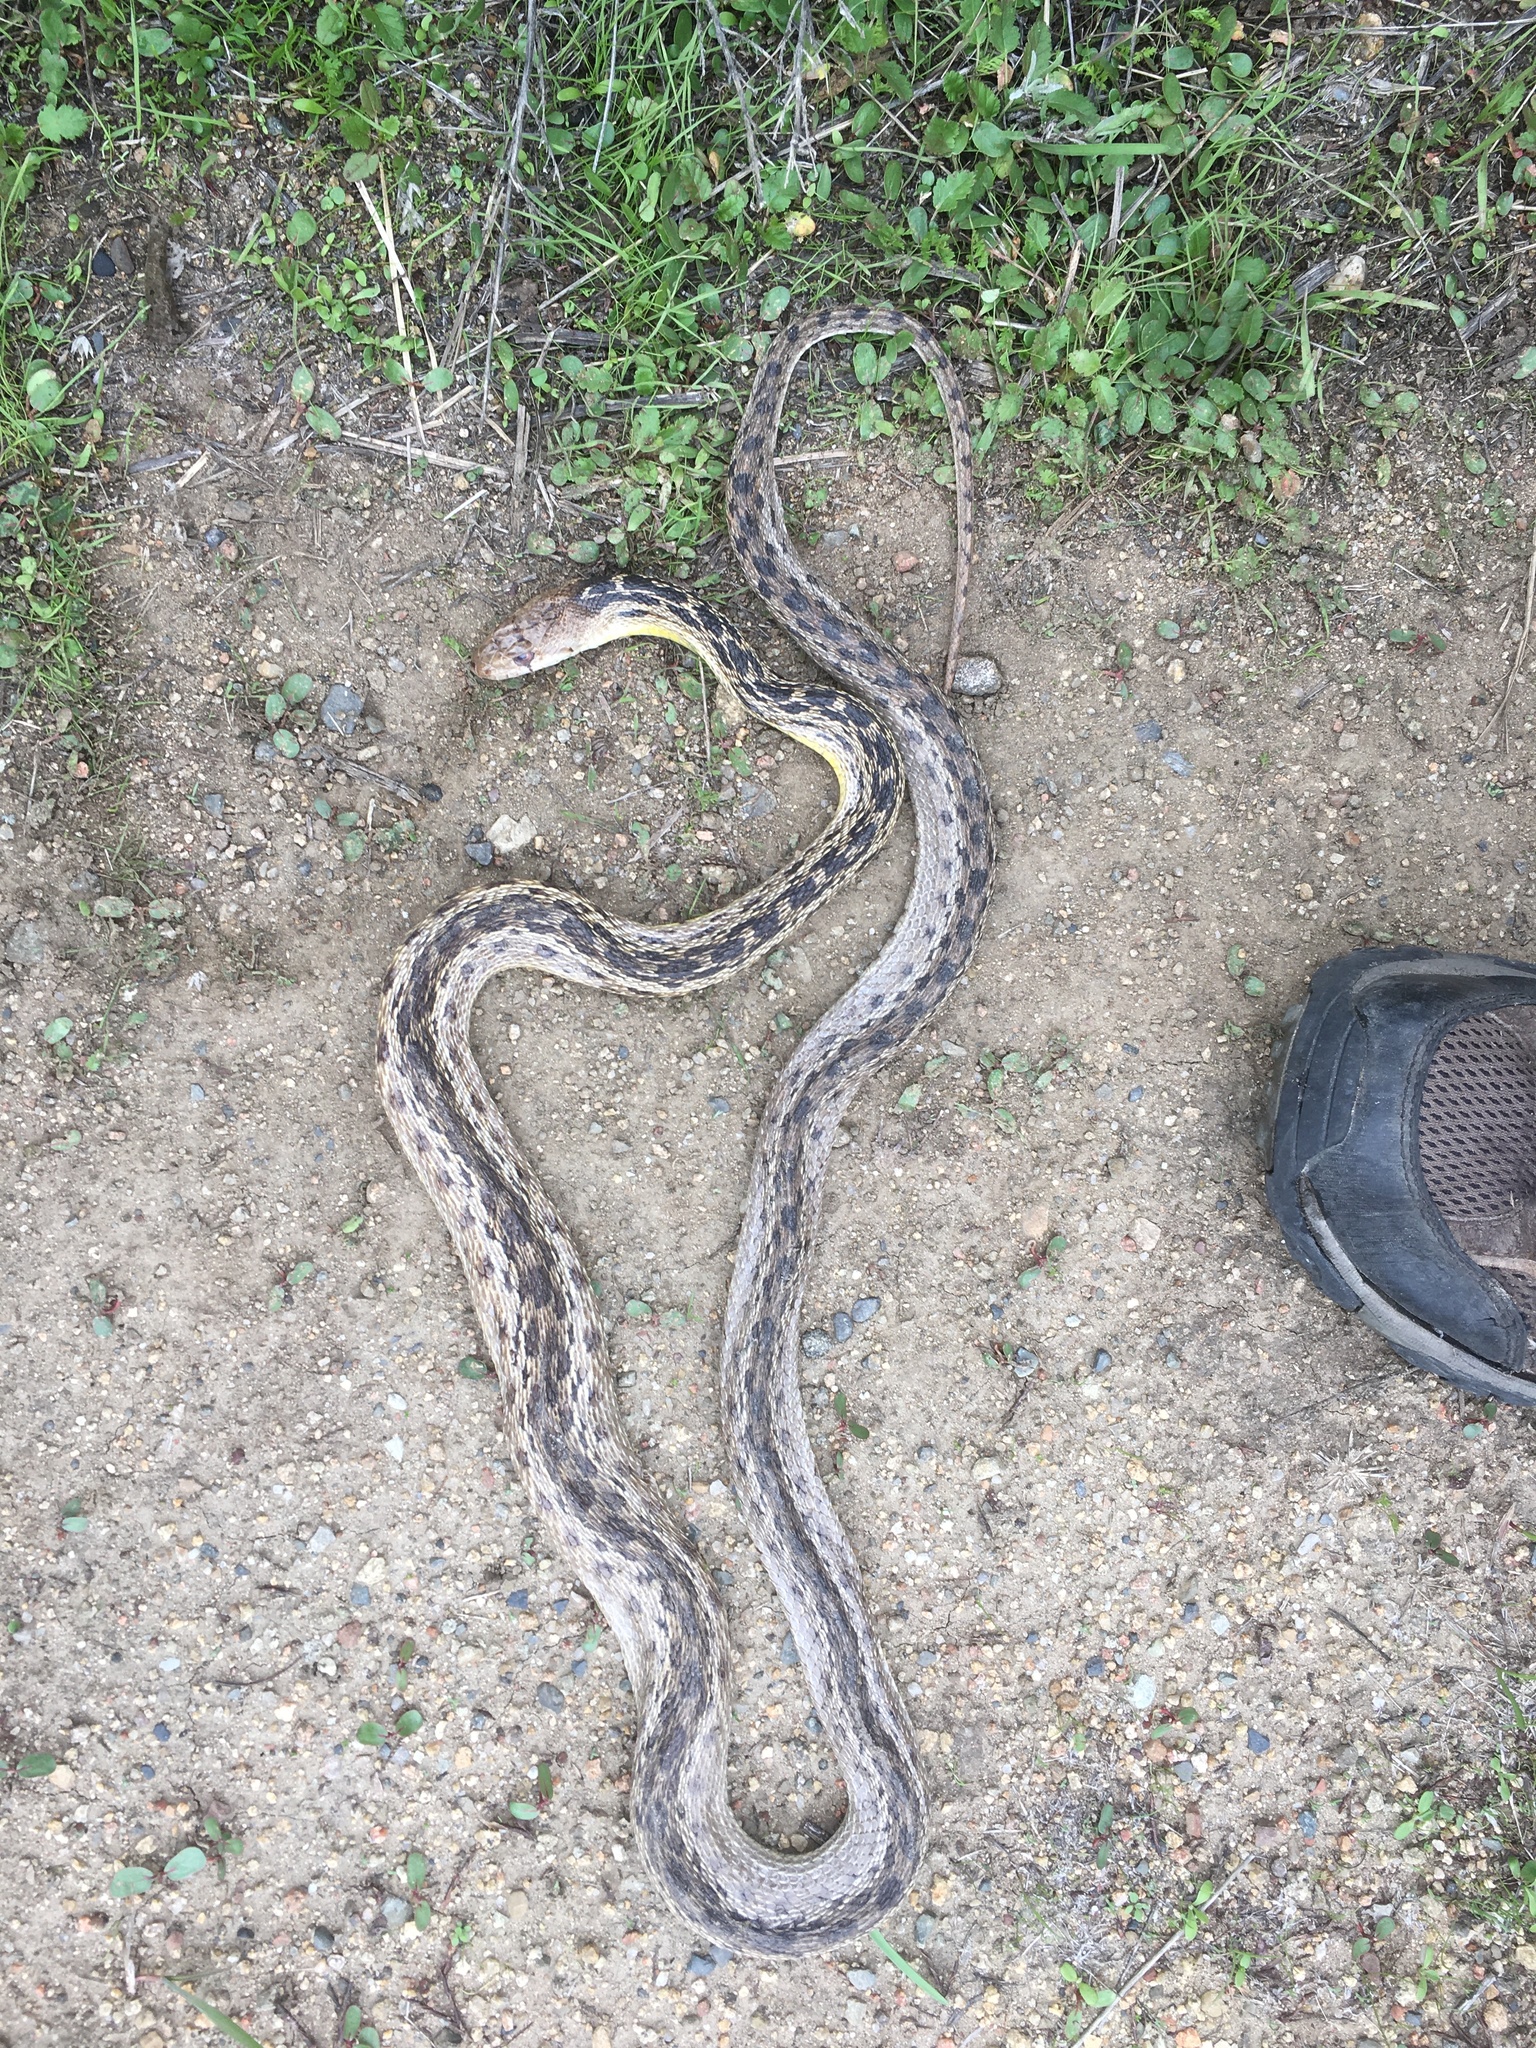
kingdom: Animalia
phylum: Chordata
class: Squamata
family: Colubridae
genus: Pituophis
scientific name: Pituophis catenifer
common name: Gopher snake
